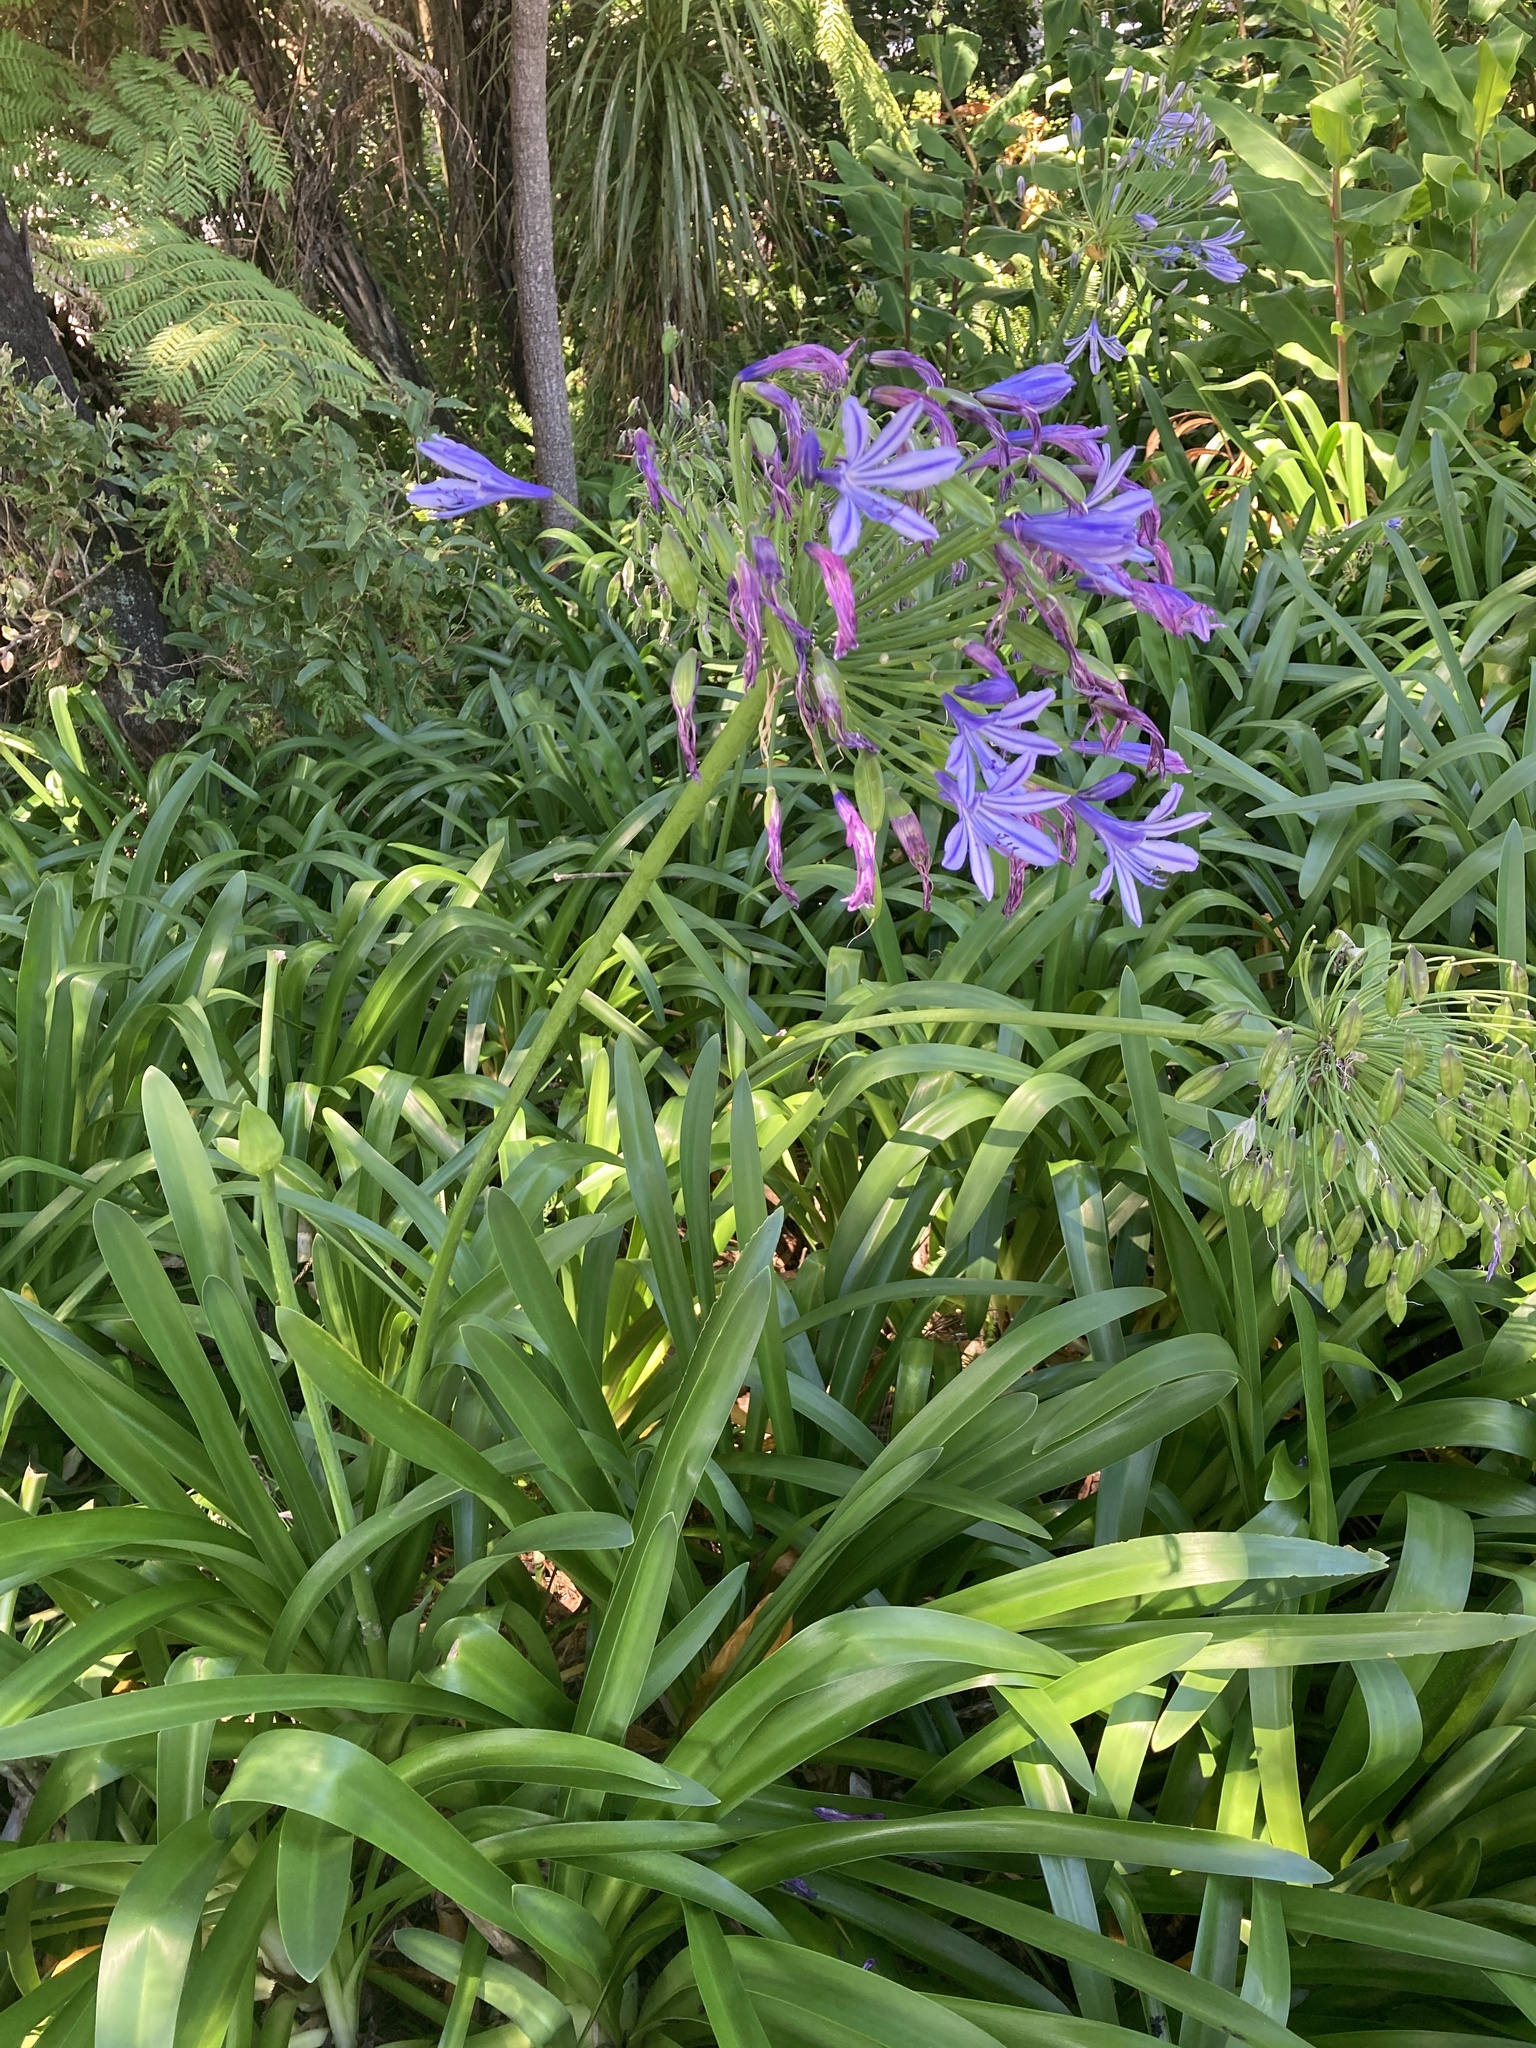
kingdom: Plantae
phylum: Tracheophyta
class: Liliopsida
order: Asparagales
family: Amaryllidaceae
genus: Agapanthus
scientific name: Agapanthus praecox
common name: African-lily
